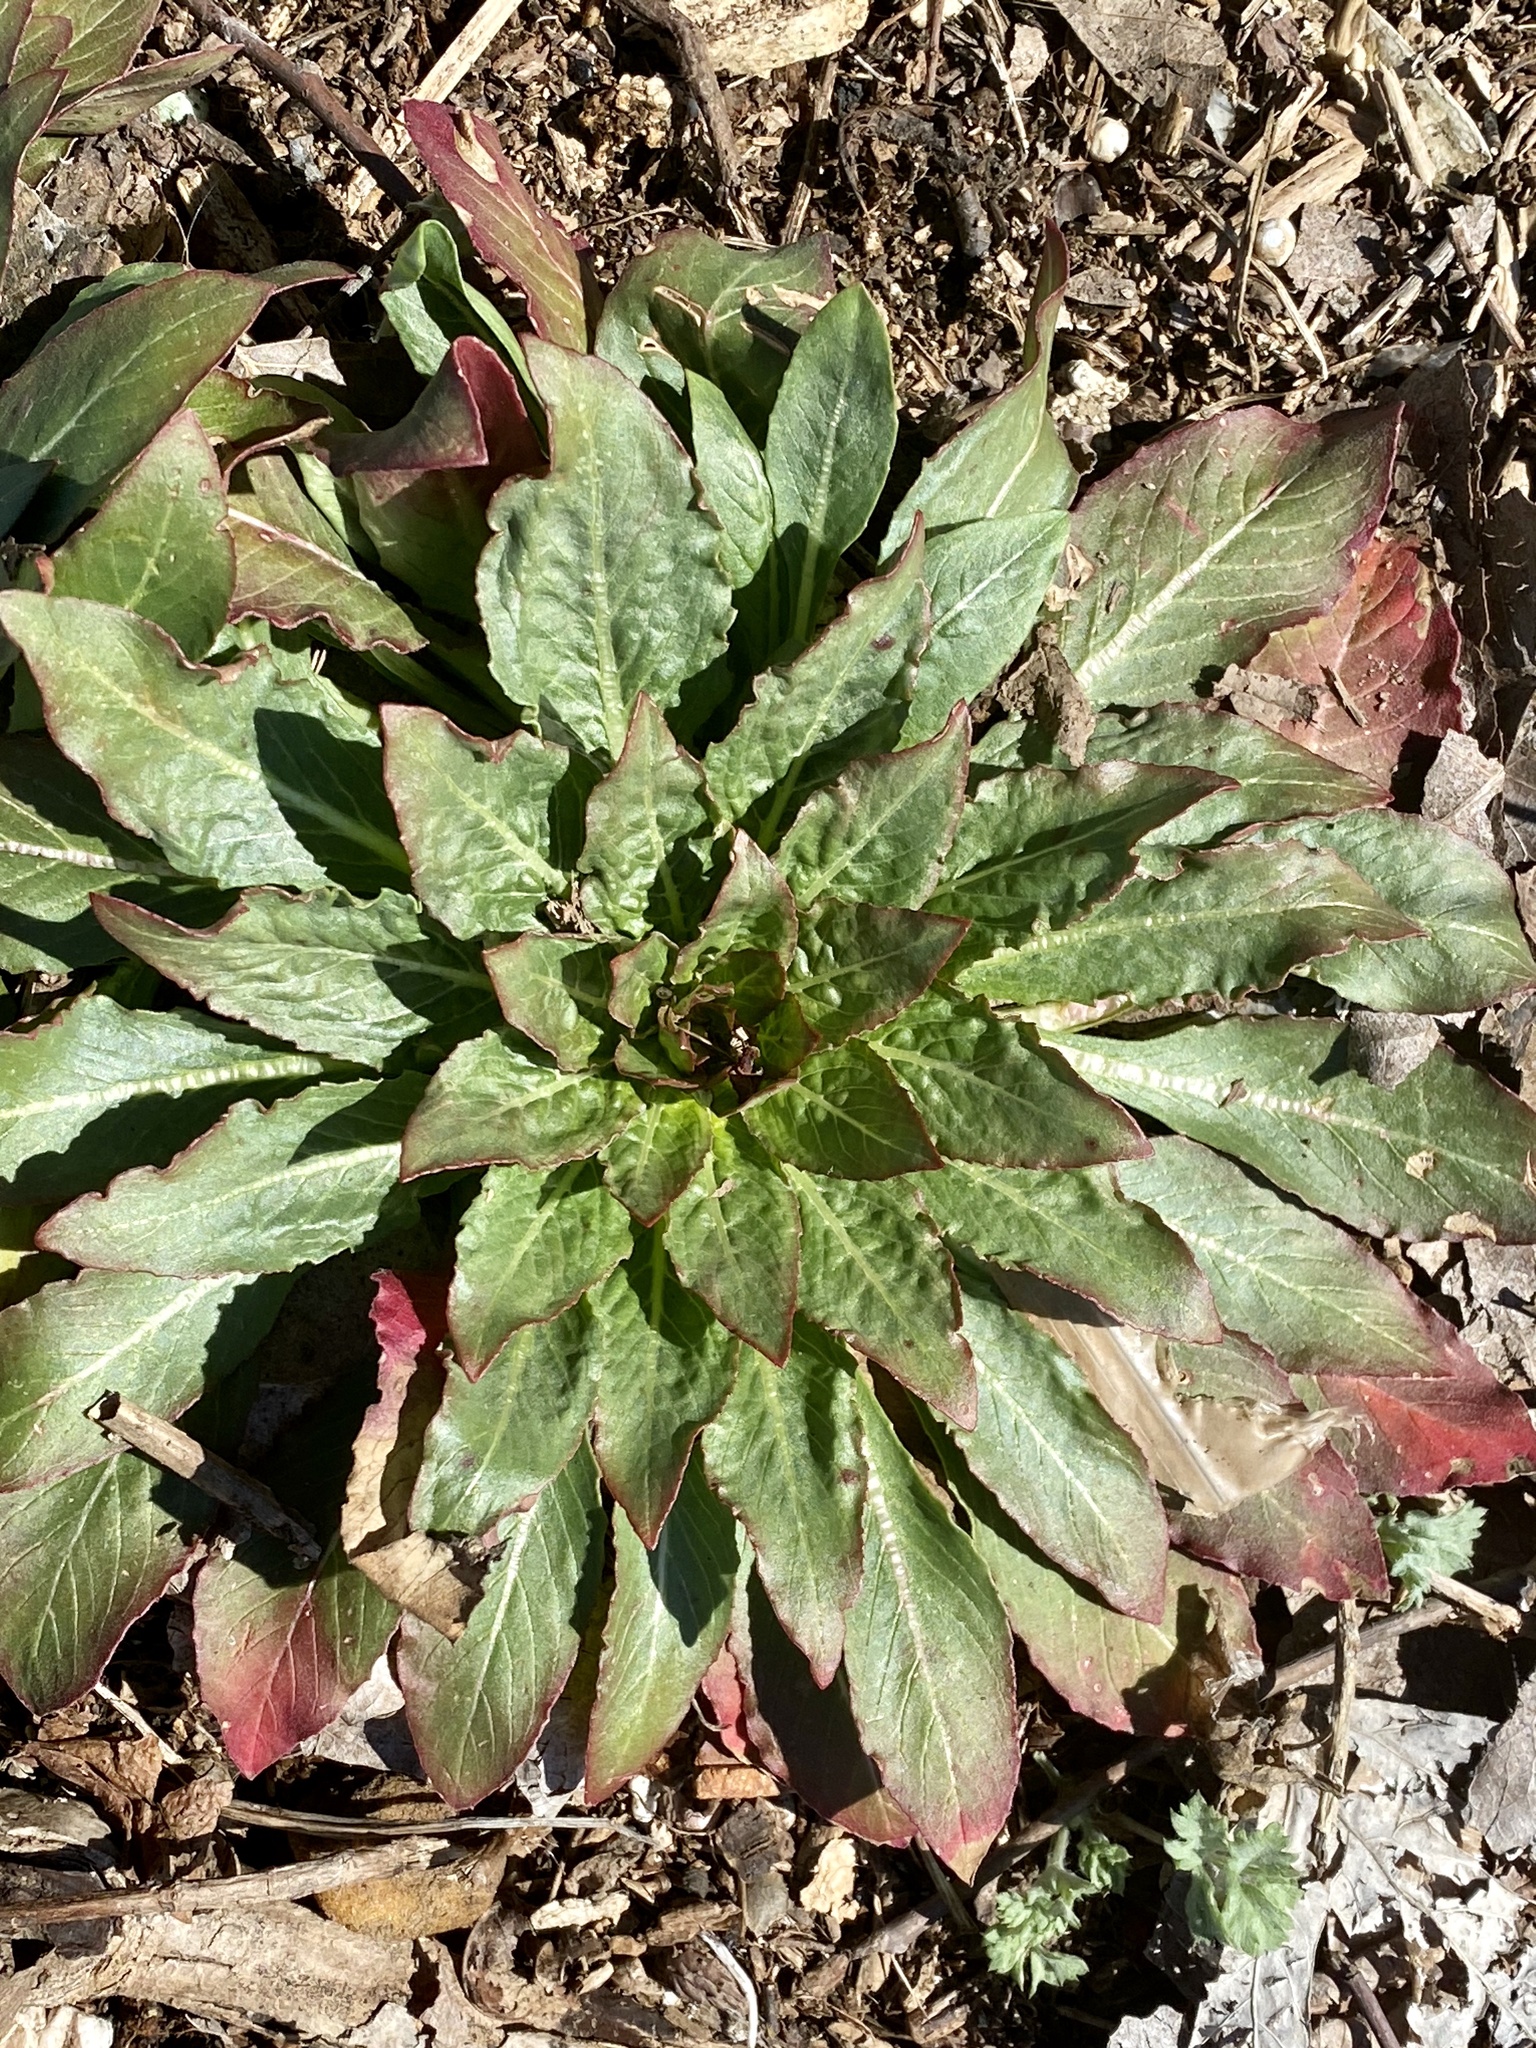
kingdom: Plantae
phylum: Tracheophyta
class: Magnoliopsida
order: Myrtales
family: Onagraceae
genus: Oenothera
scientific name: Oenothera biennis
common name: Common evening-primrose
